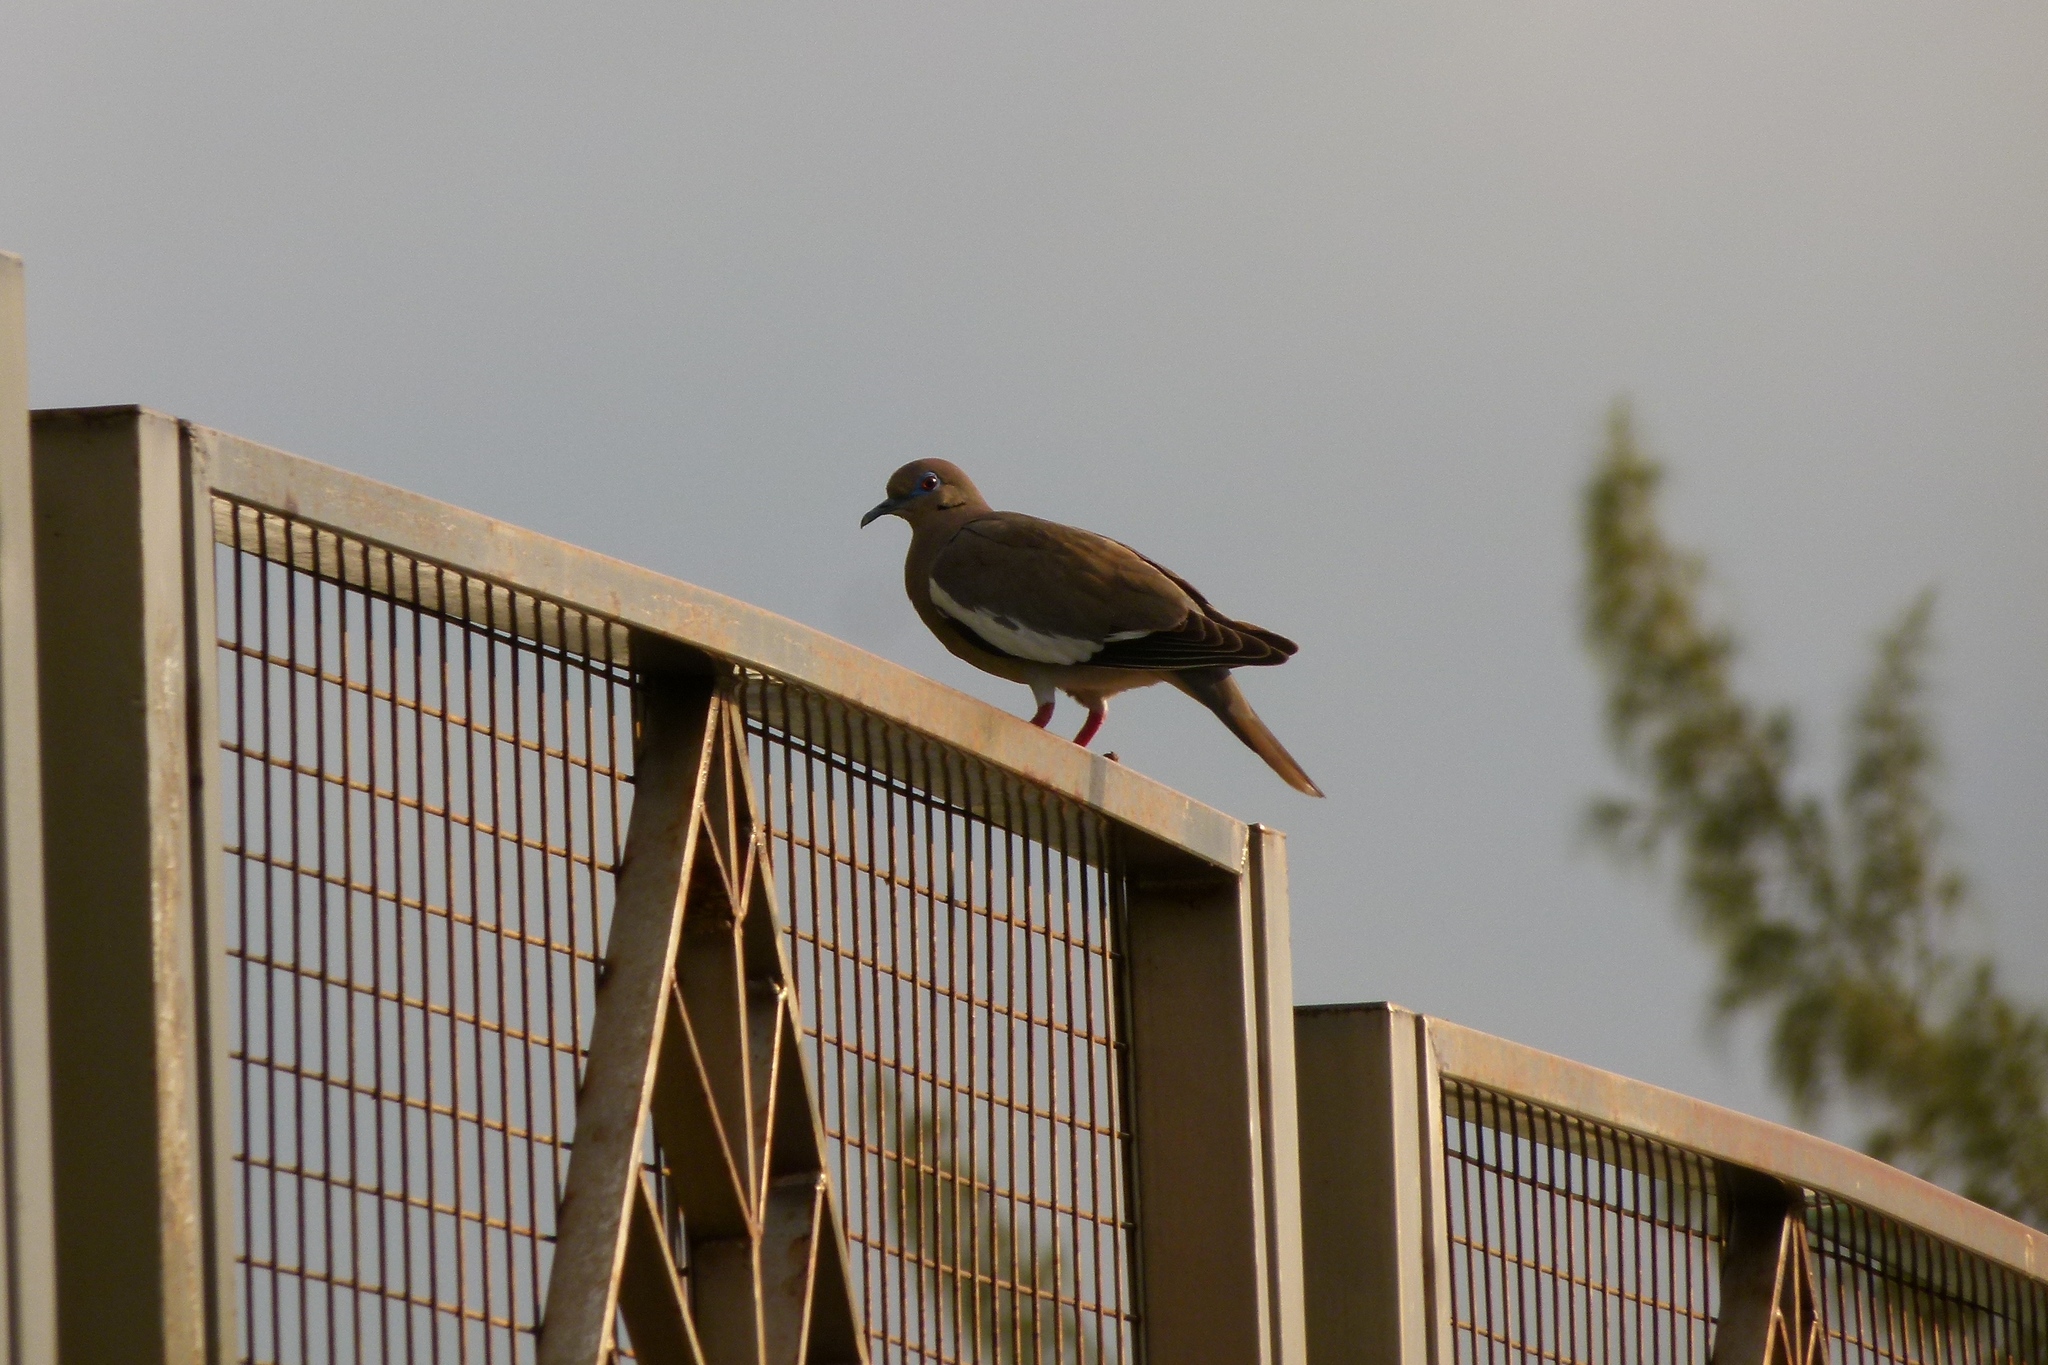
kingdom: Animalia
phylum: Chordata
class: Aves
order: Columbiformes
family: Columbidae
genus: Zenaida
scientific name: Zenaida asiatica
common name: White-winged dove
